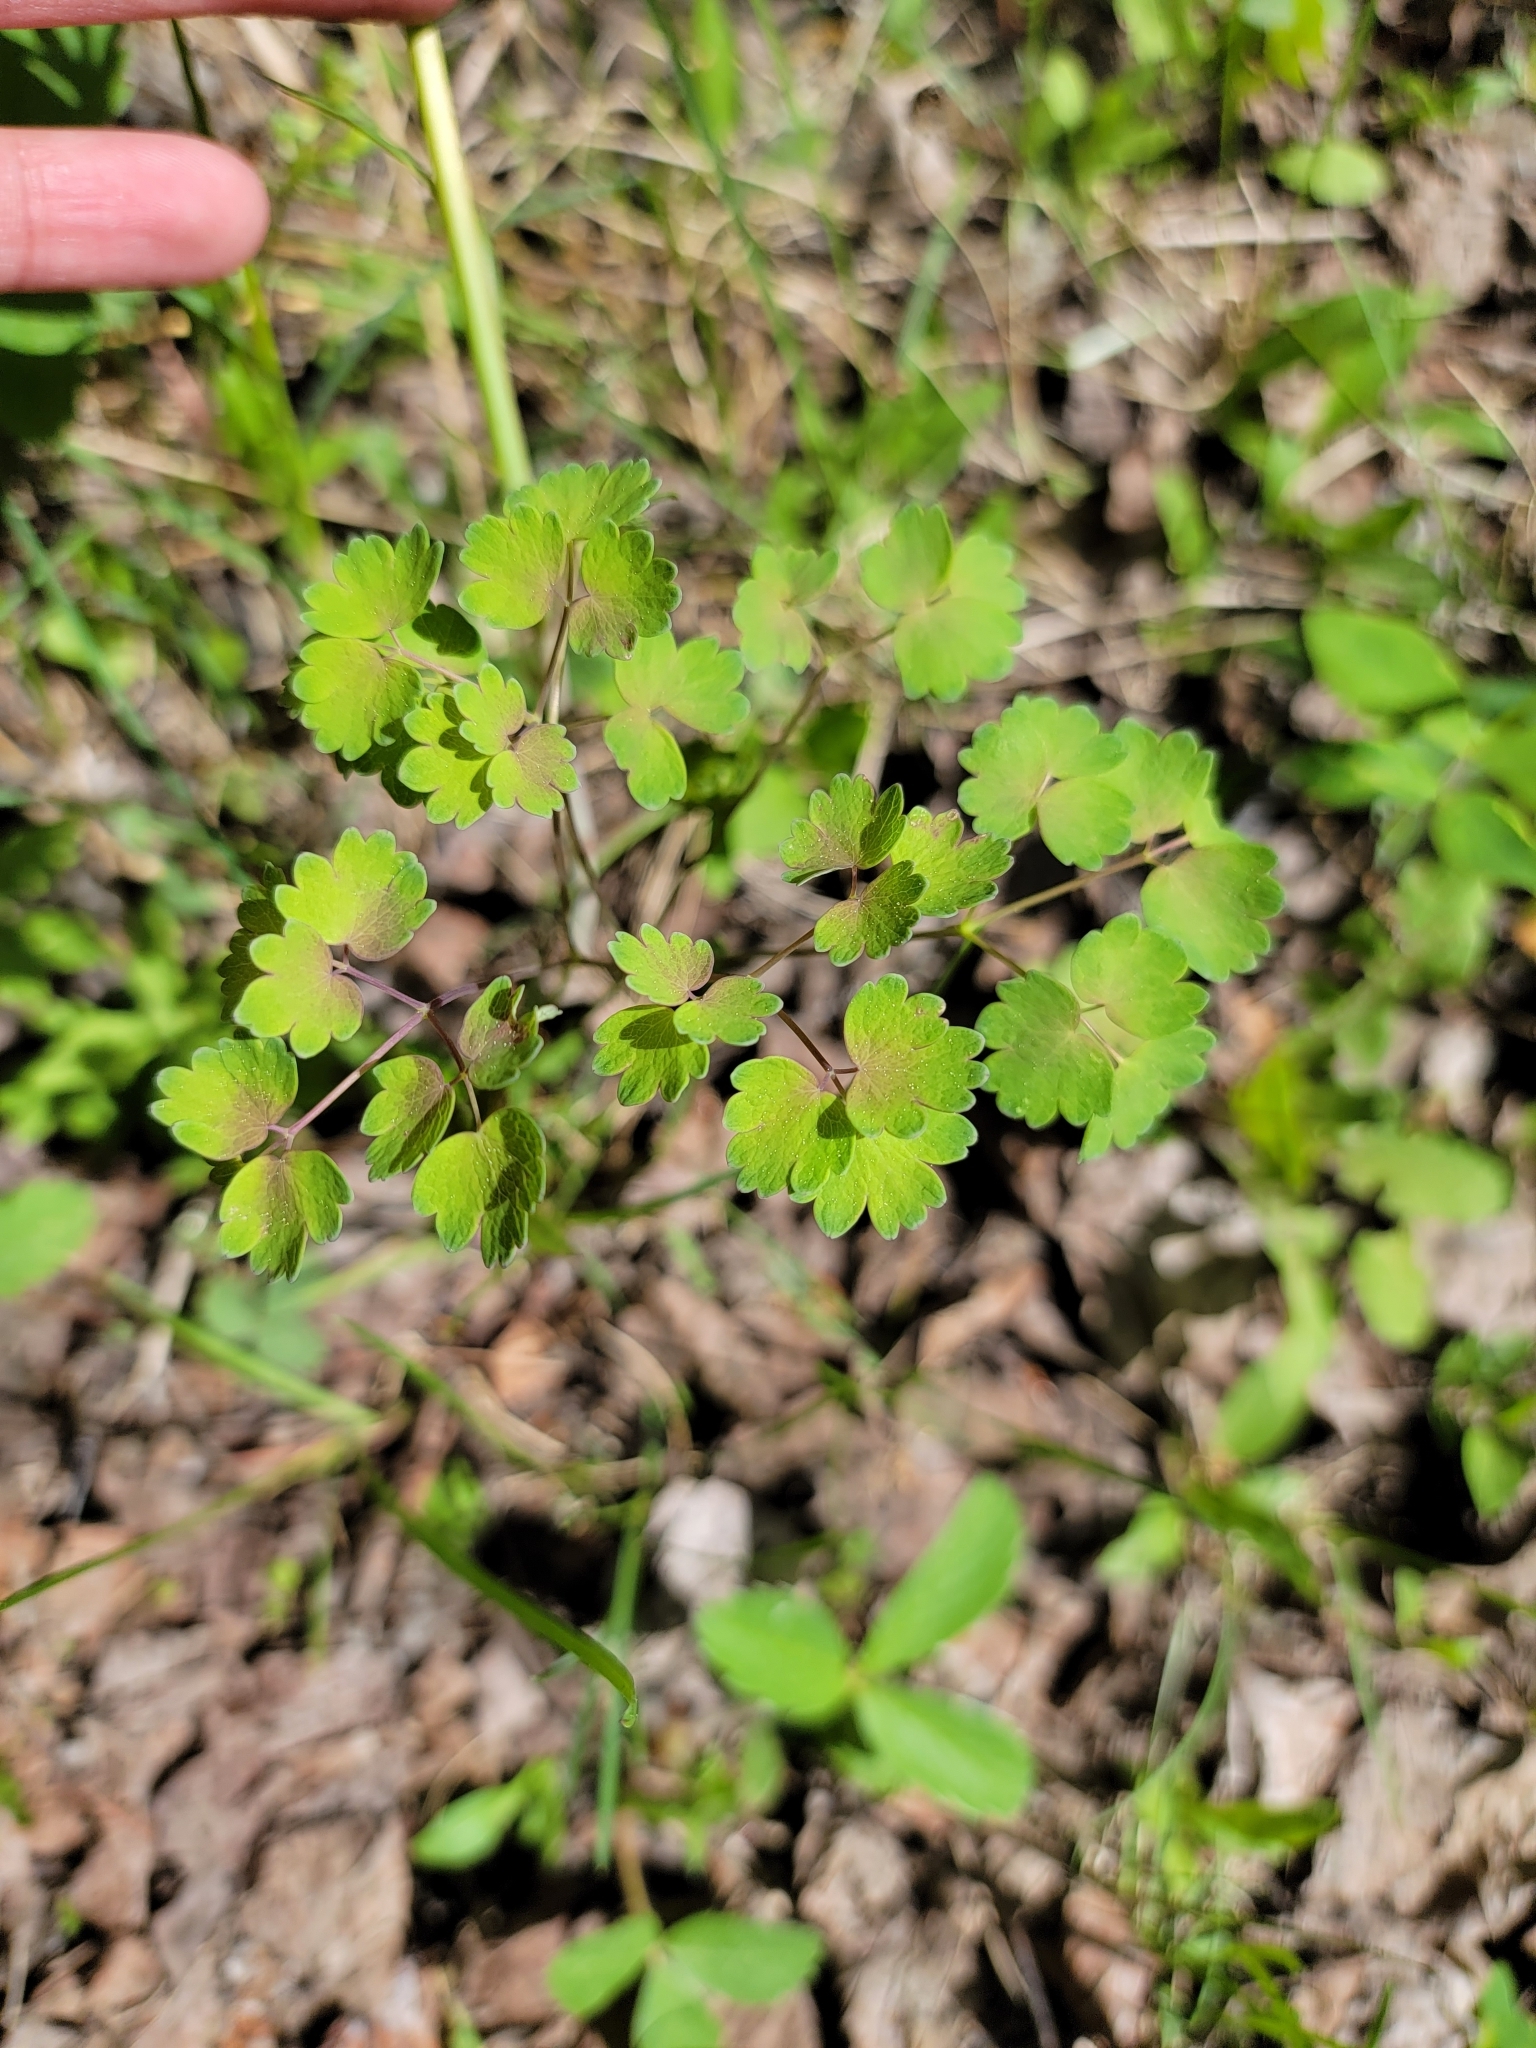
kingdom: Plantae
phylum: Tracheophyta
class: Magnoliopsida
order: Ranunculales
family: Ranunculaceae
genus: Thalictrum
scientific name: Thalictrum venulosum
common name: Early meadow-rue
